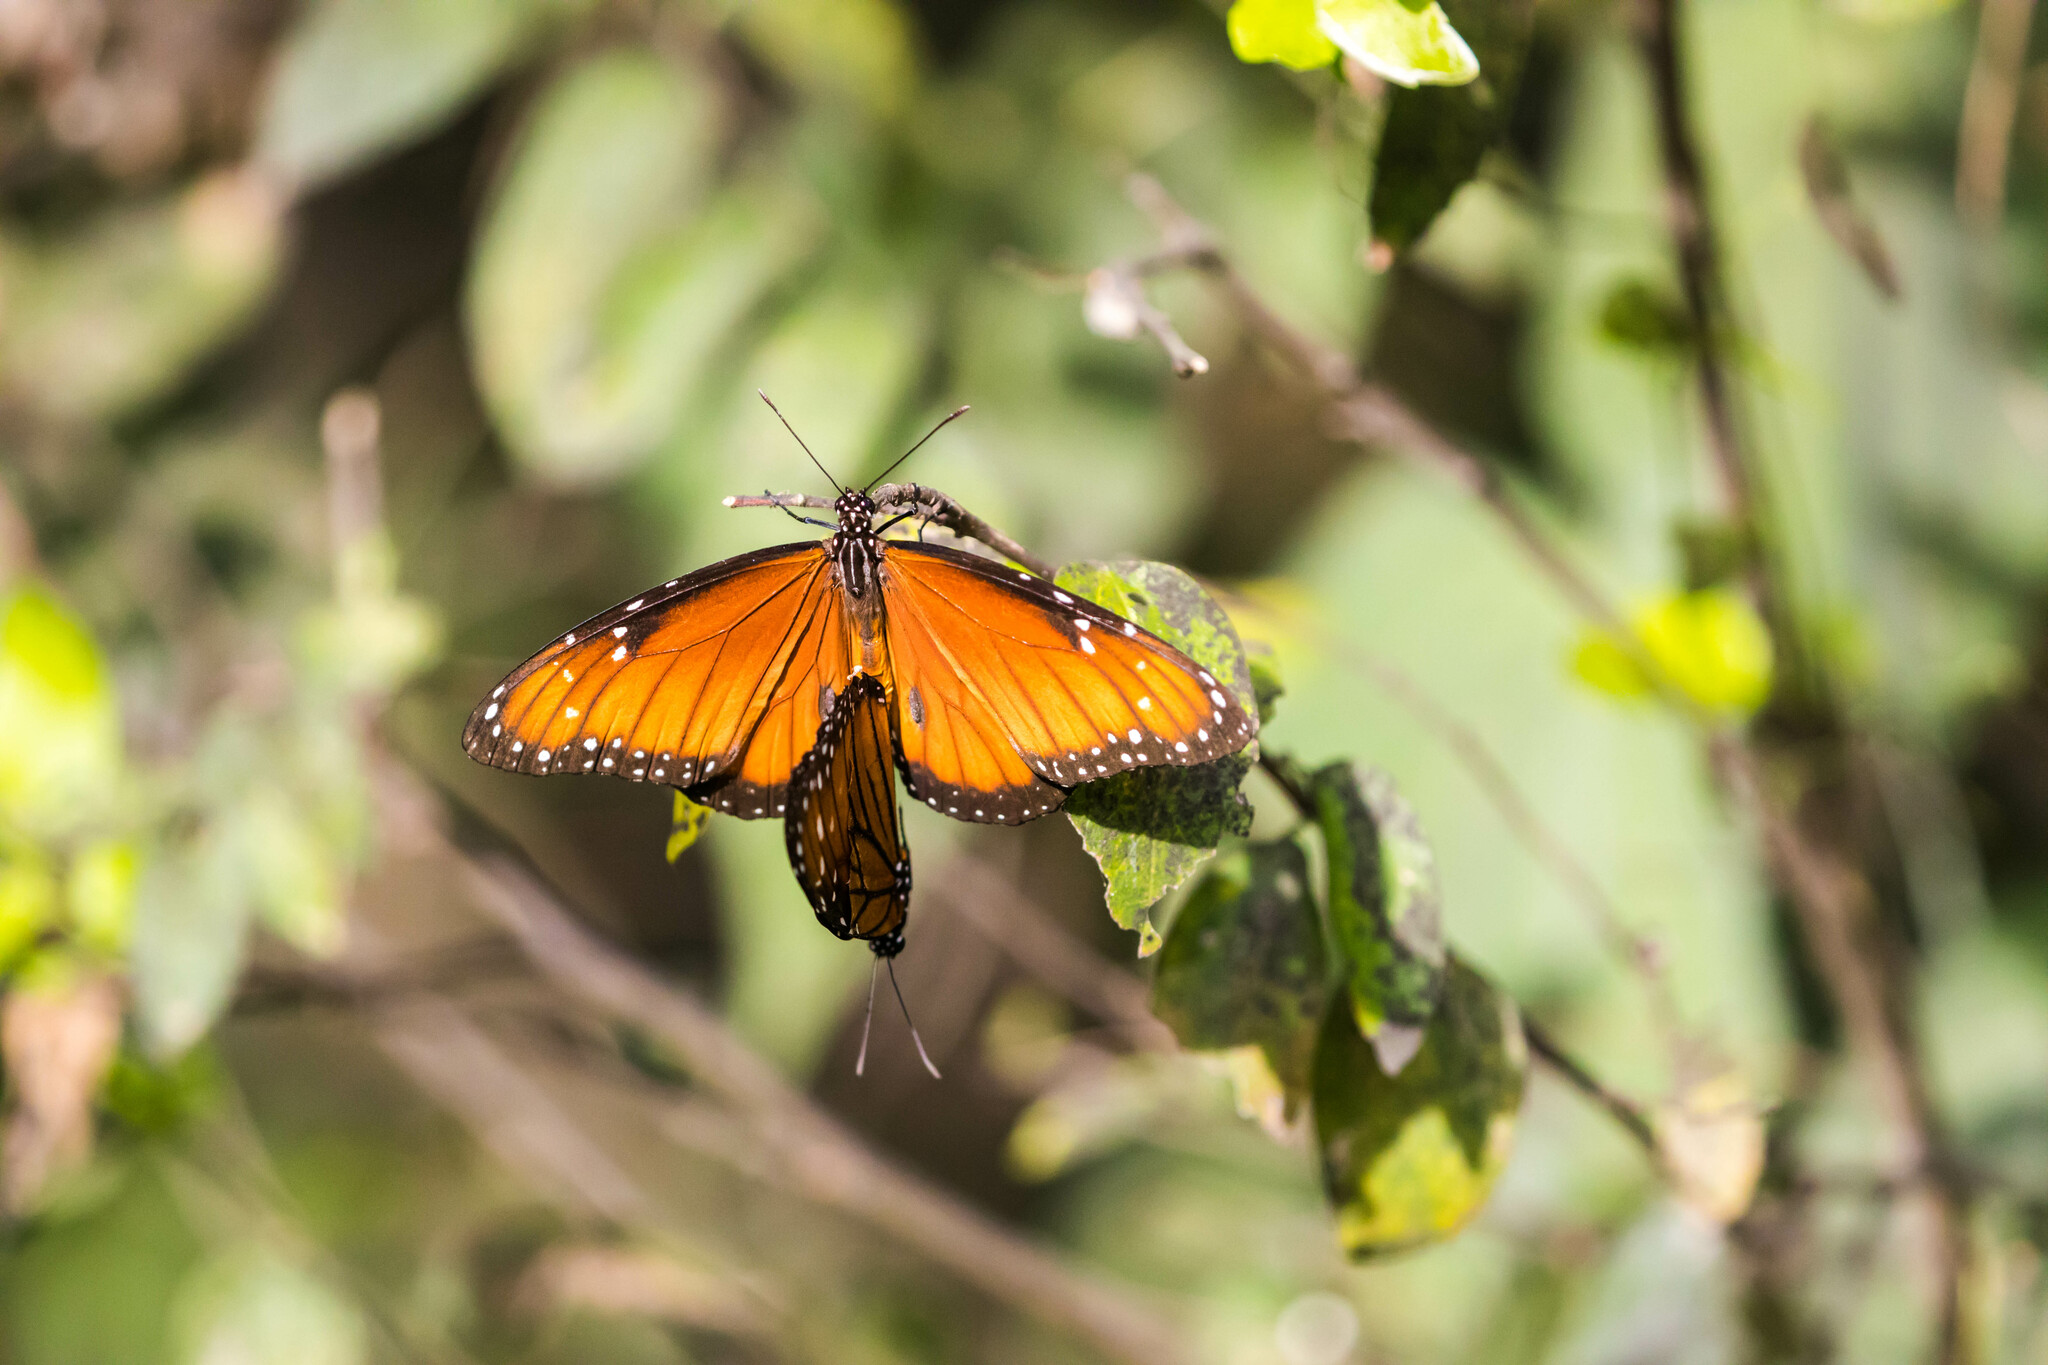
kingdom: Animalia
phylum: Arthropoda
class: Insecta
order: Lepidoptera
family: Nymphalidae
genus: Danaus
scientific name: Danaus eresimus
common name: Soldier
